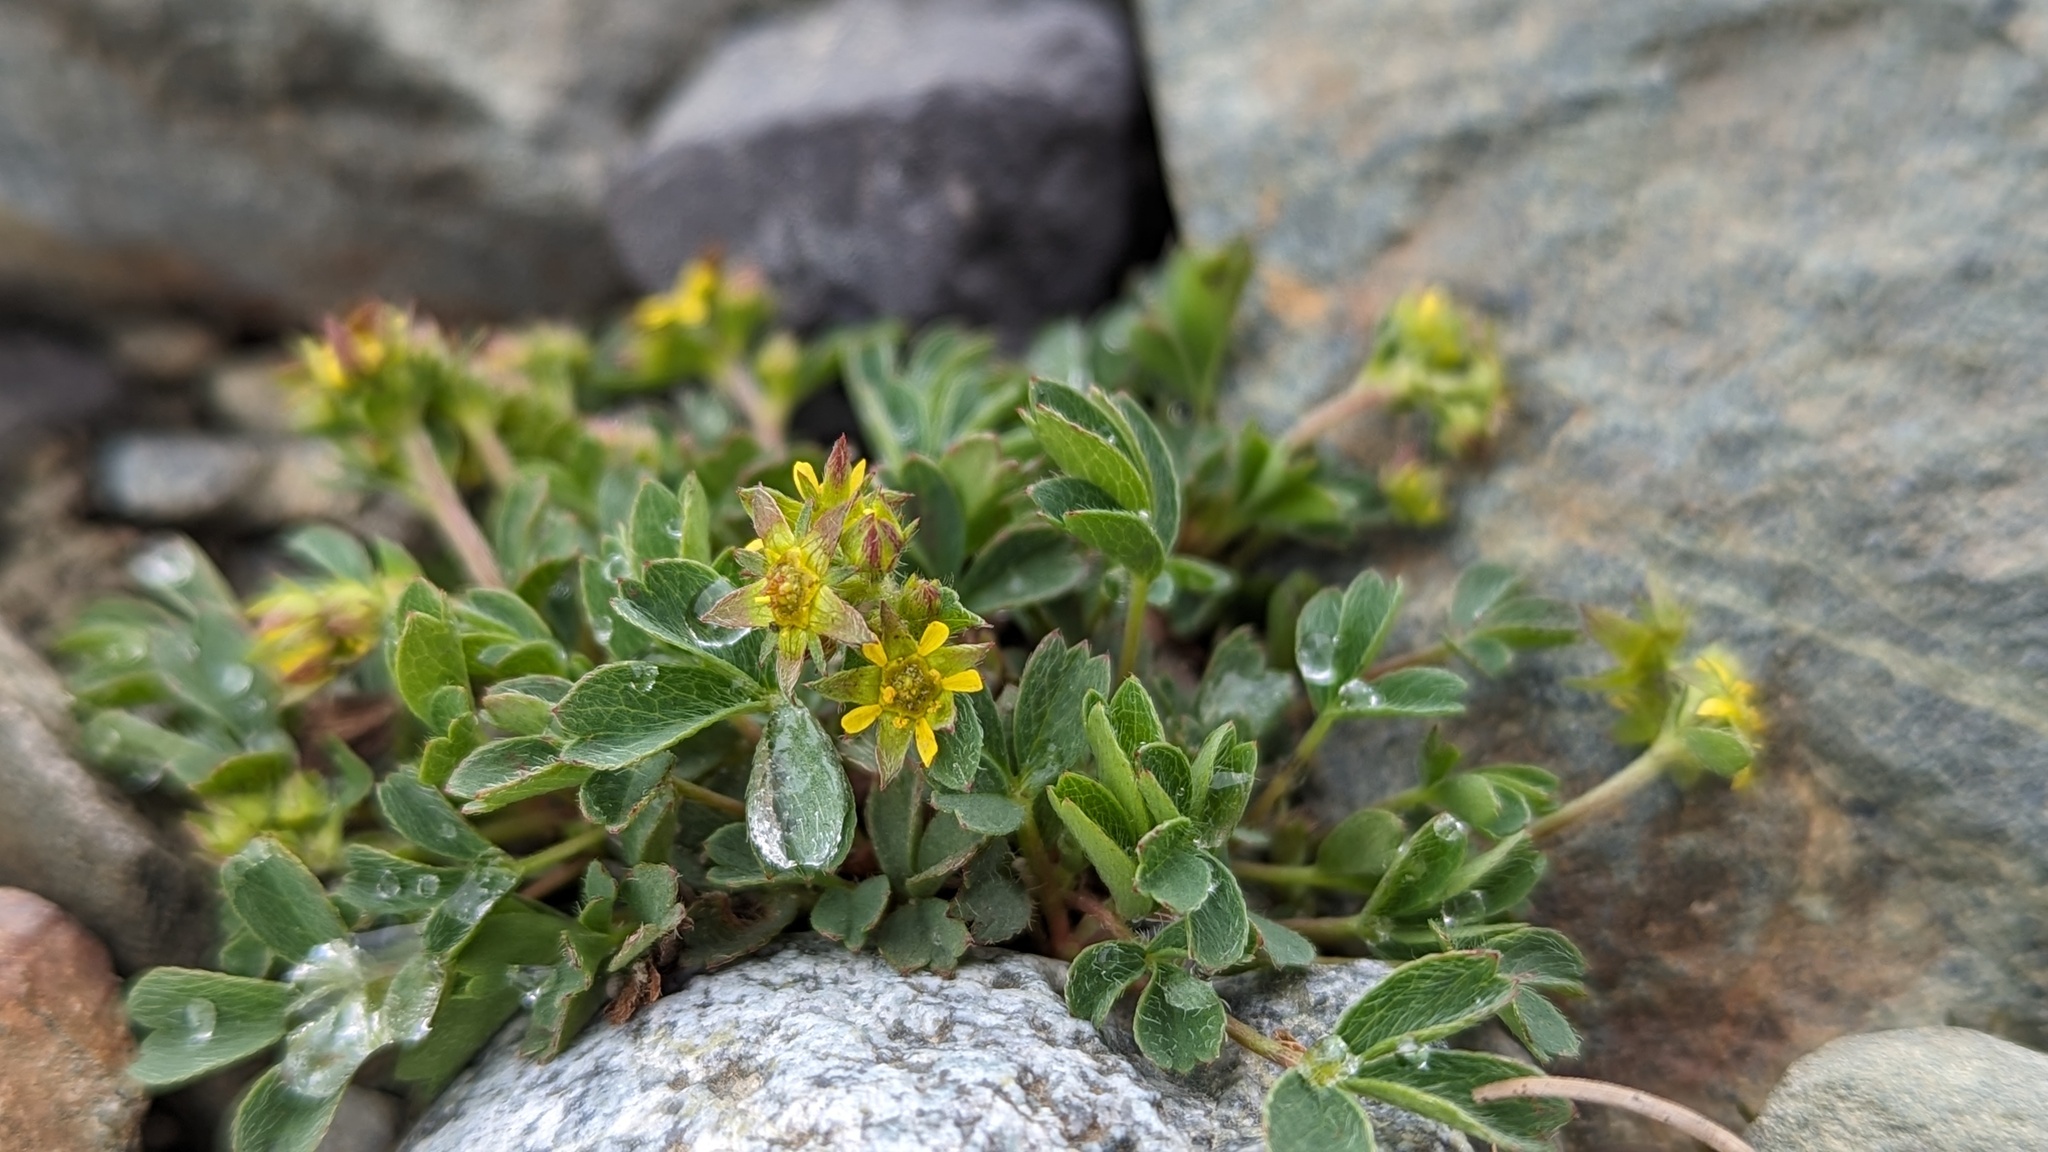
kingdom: Plantae
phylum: Tracheophyta
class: Magnoliopsida
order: Rosales
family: Rosaceae
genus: Sibbaldia
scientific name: Sibbaldia procumbens
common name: Creeping sibbaldia
